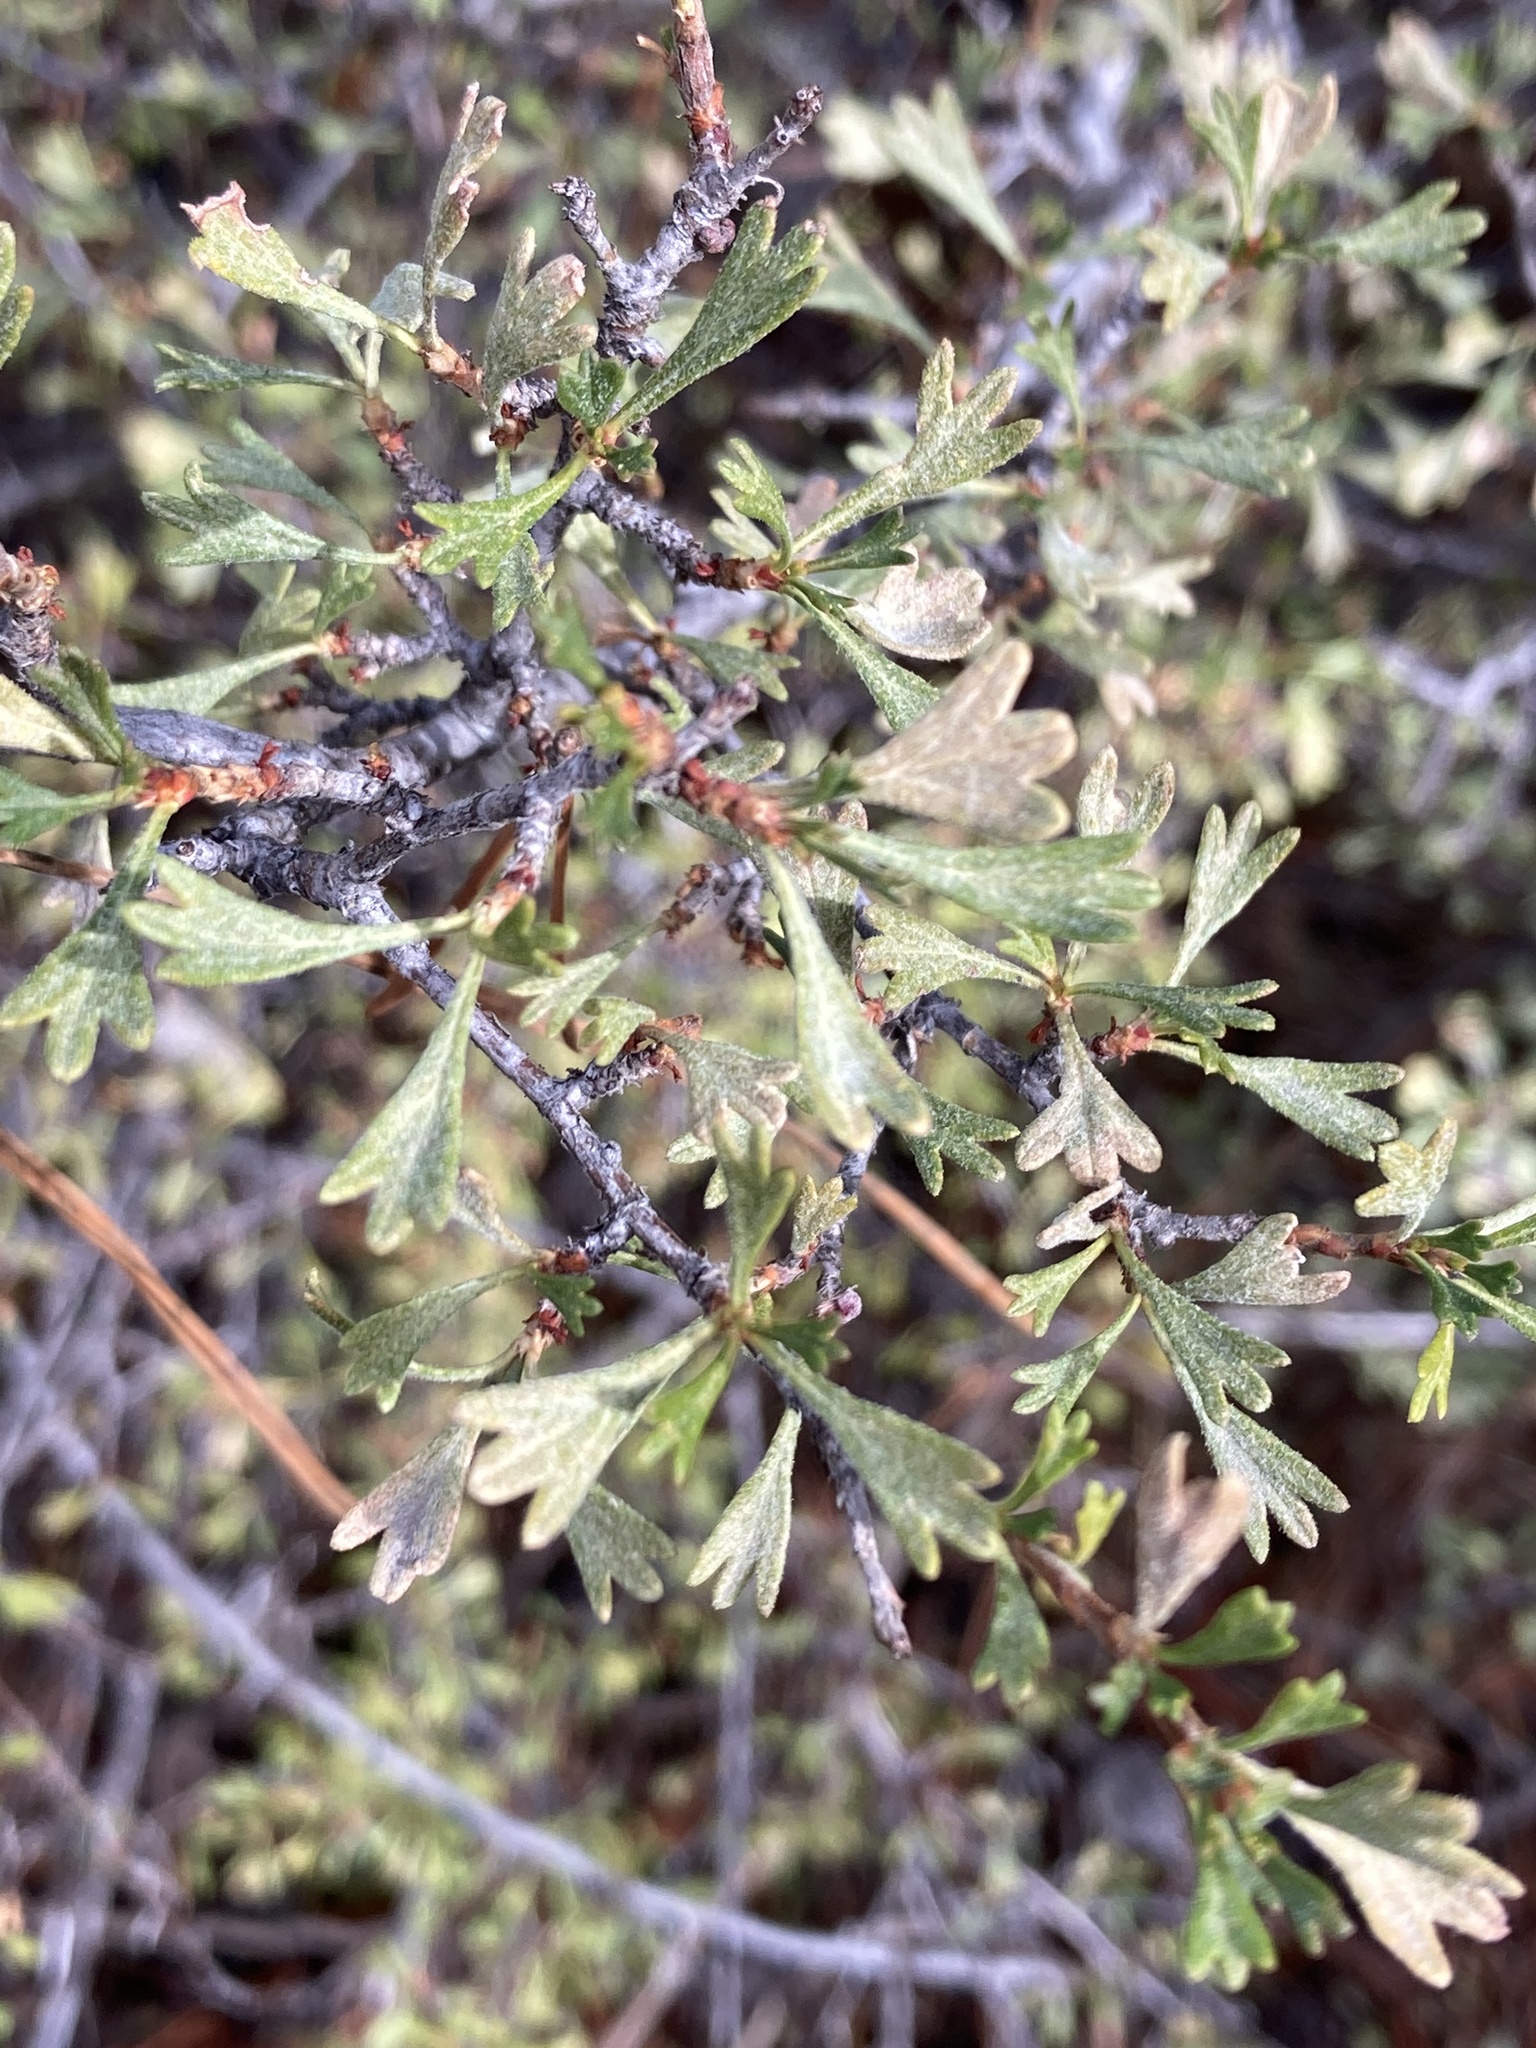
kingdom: Plantae
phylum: Tracheophyta
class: Magnoliopsida
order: Rosales
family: Rosaceae
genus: Purshia
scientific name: Purshia tridentata
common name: Antelope bitterbrush
